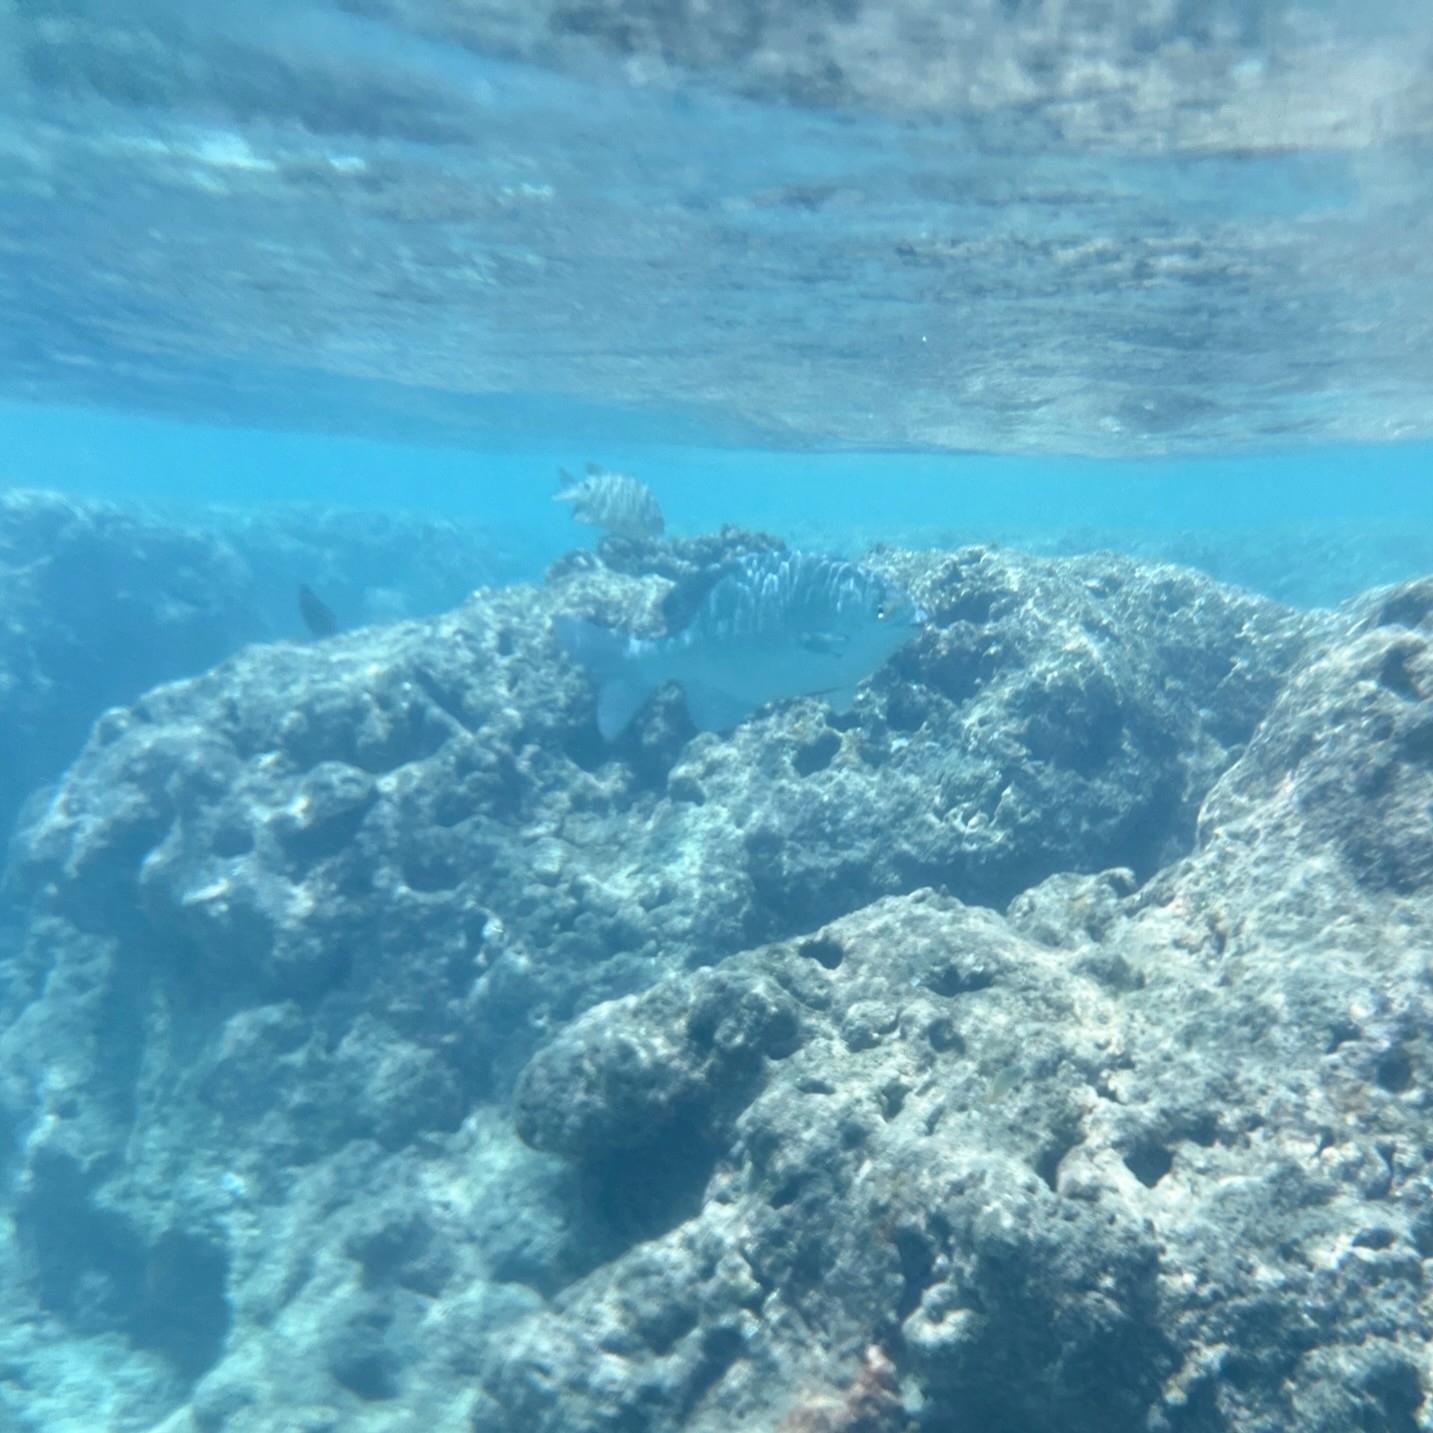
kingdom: Animalia
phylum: Chordata
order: Perciformes
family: Kyphosidae
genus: Kyphosus
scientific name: Kyphosus cinerascens
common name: Topsail drummer
